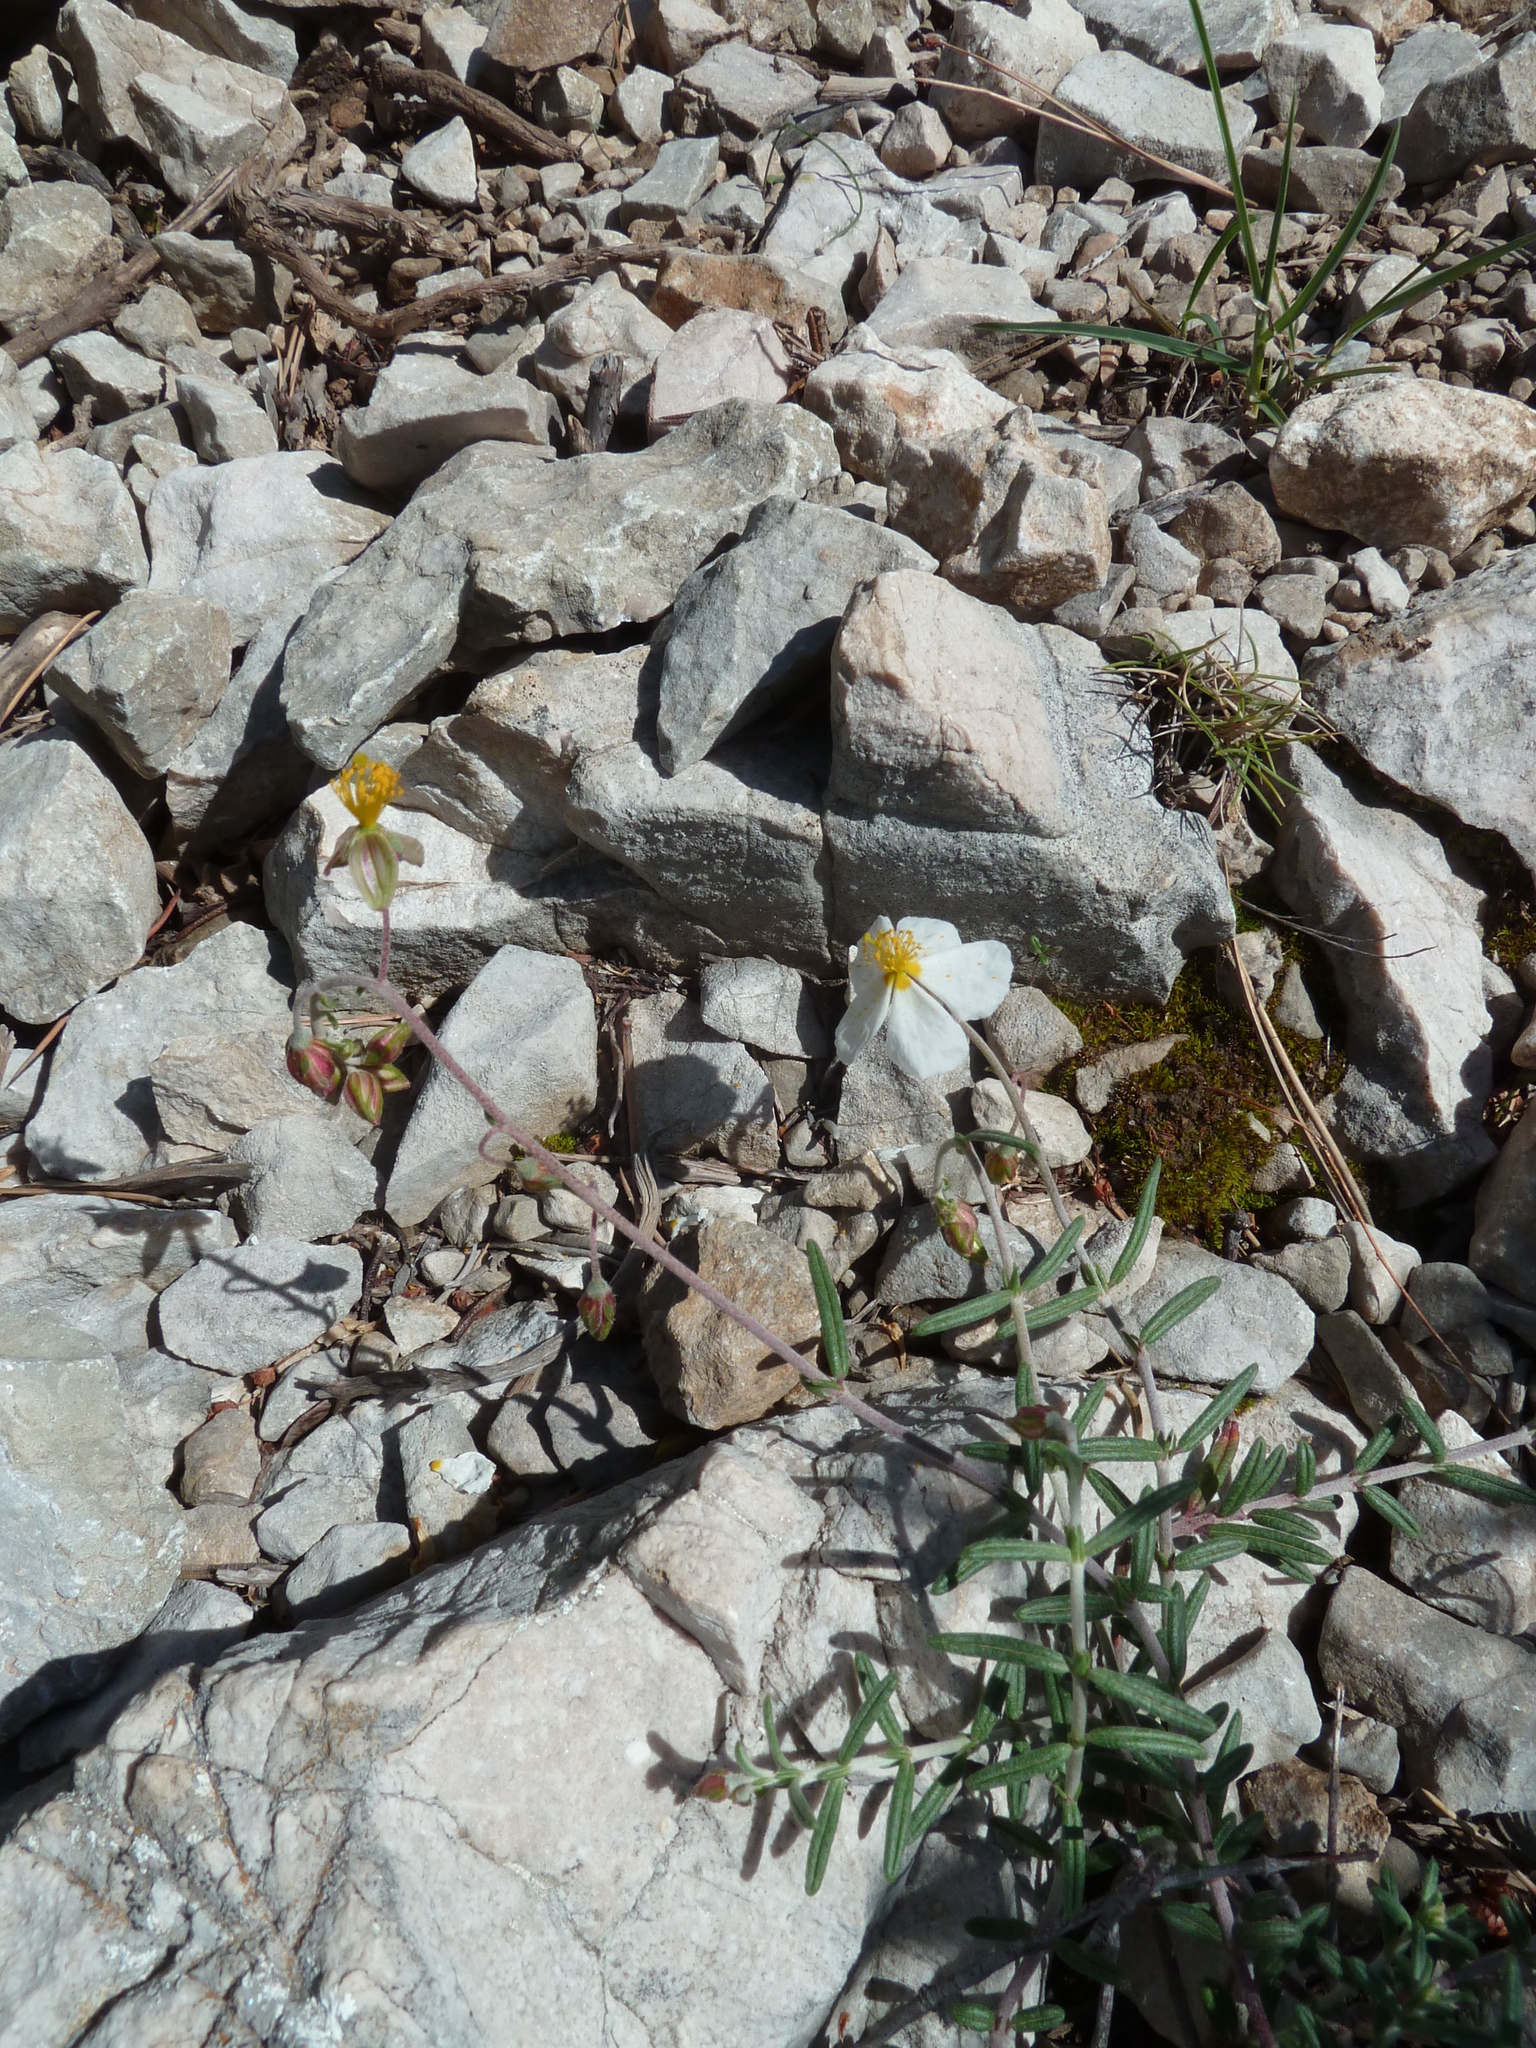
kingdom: Plantae
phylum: Tracheophyta
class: Magnoliopsida
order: Malvales
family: Cistaceae
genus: Helianthemum
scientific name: Helianthemum violaceum
